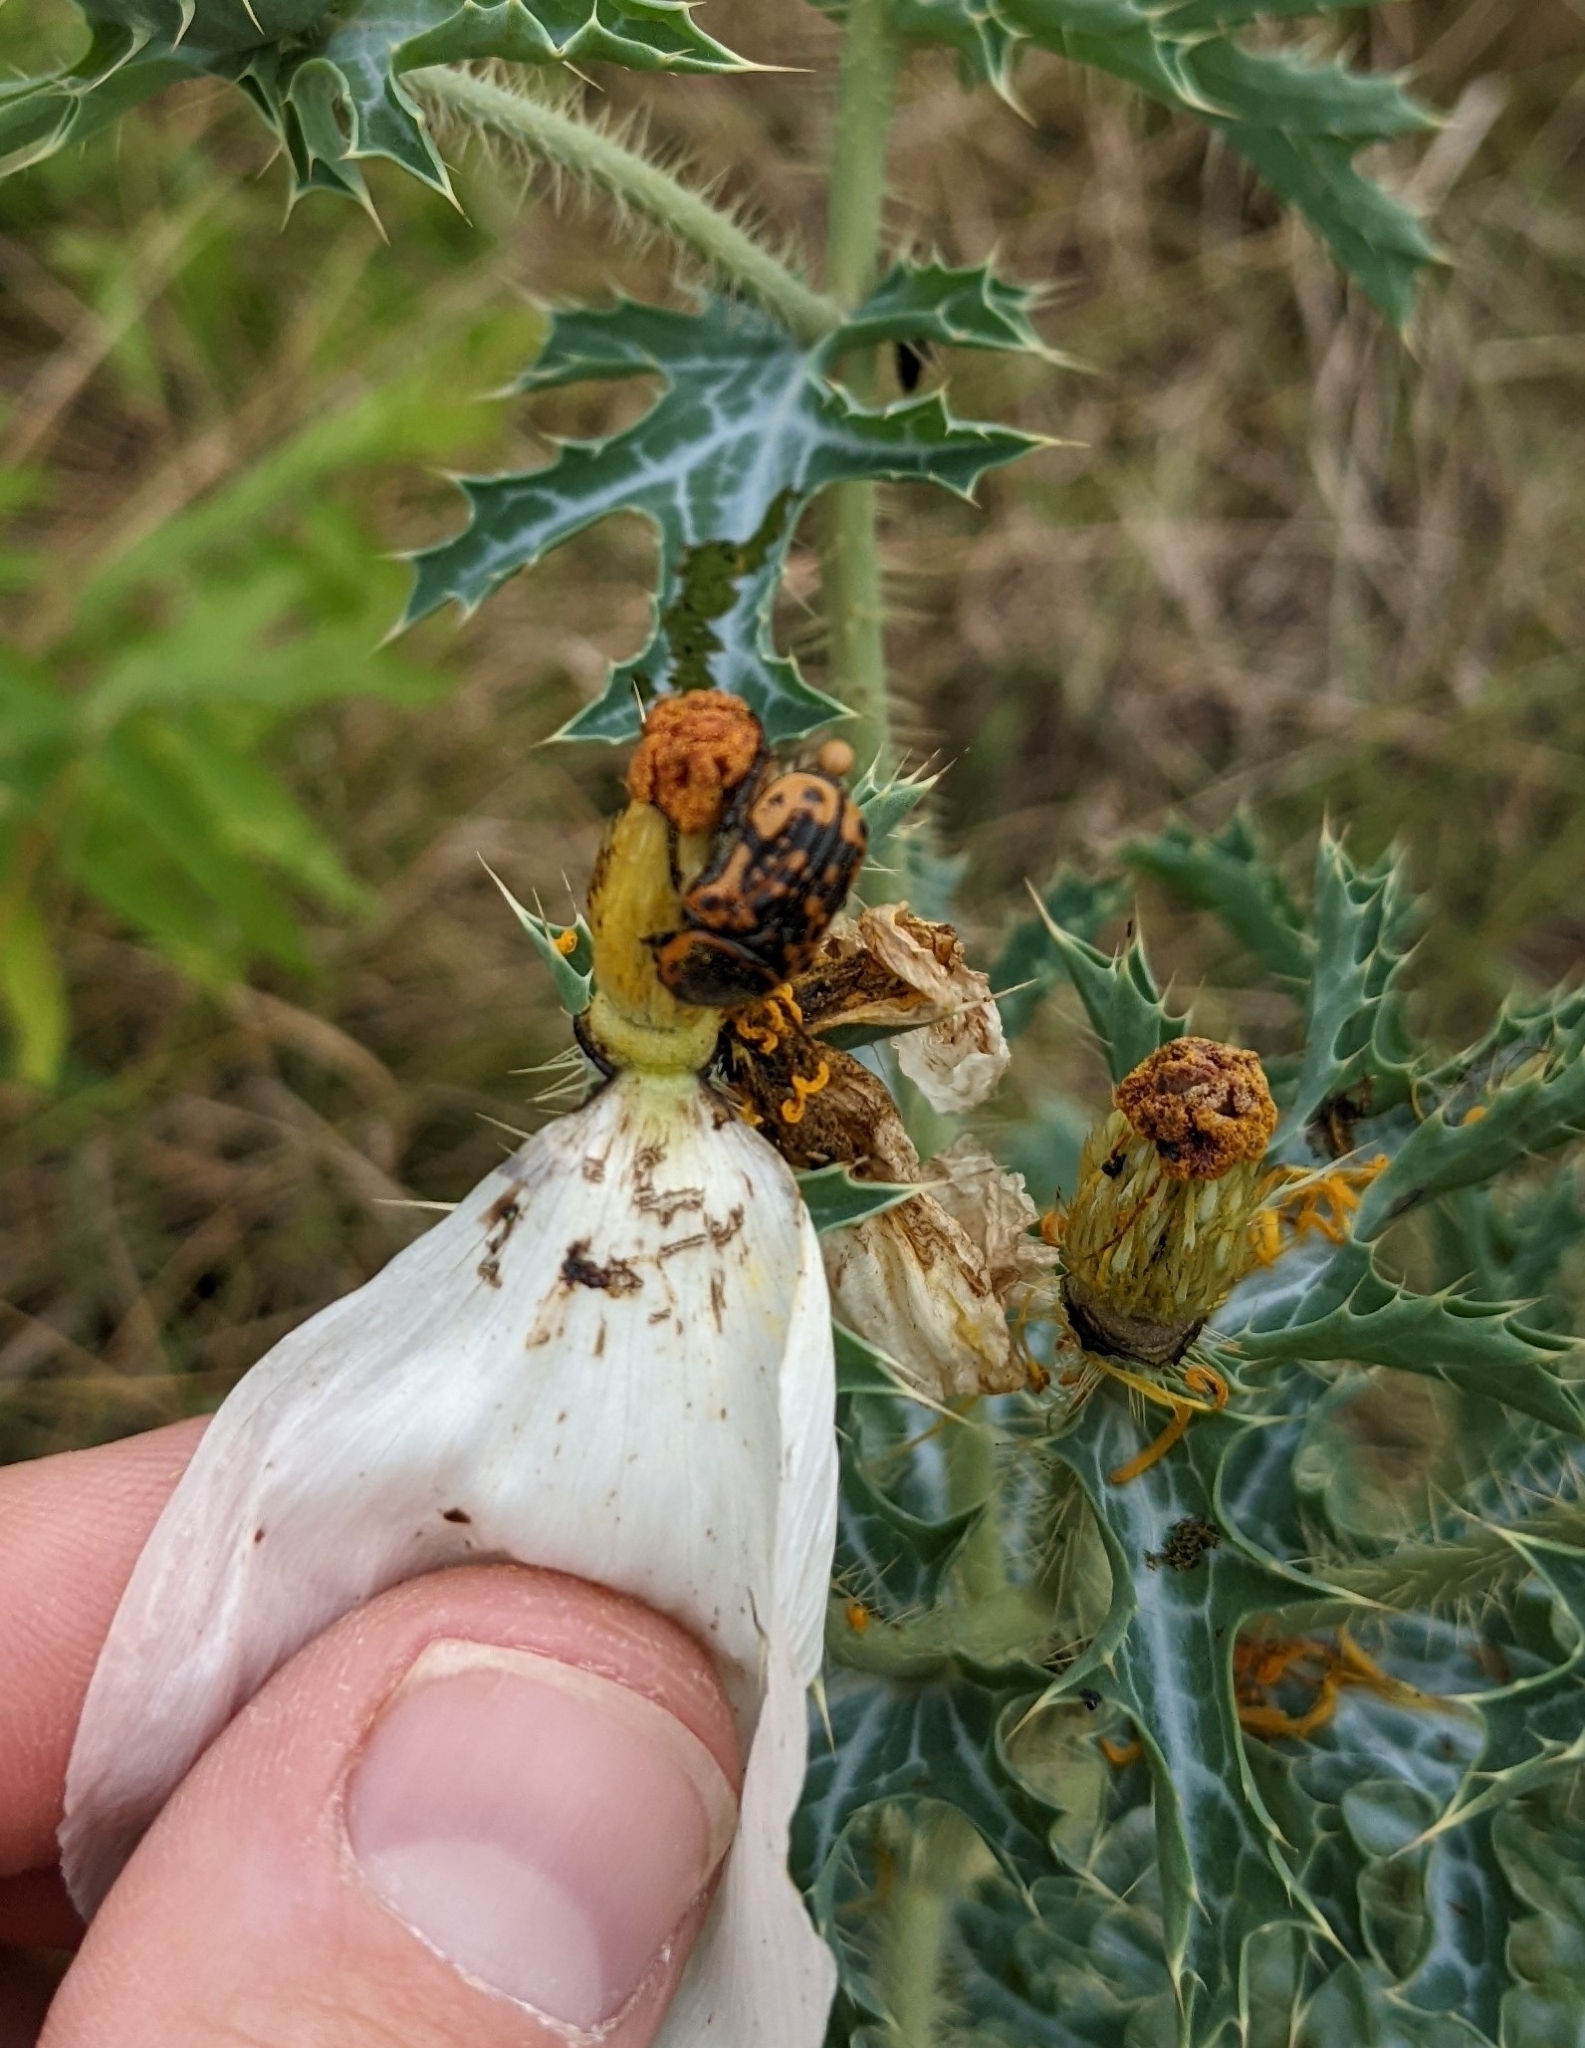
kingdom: Animalia
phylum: Arthropoda
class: Insecta
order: Coleoptera
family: Scarabaeidae
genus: Euphoria
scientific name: Euphoria kernii
